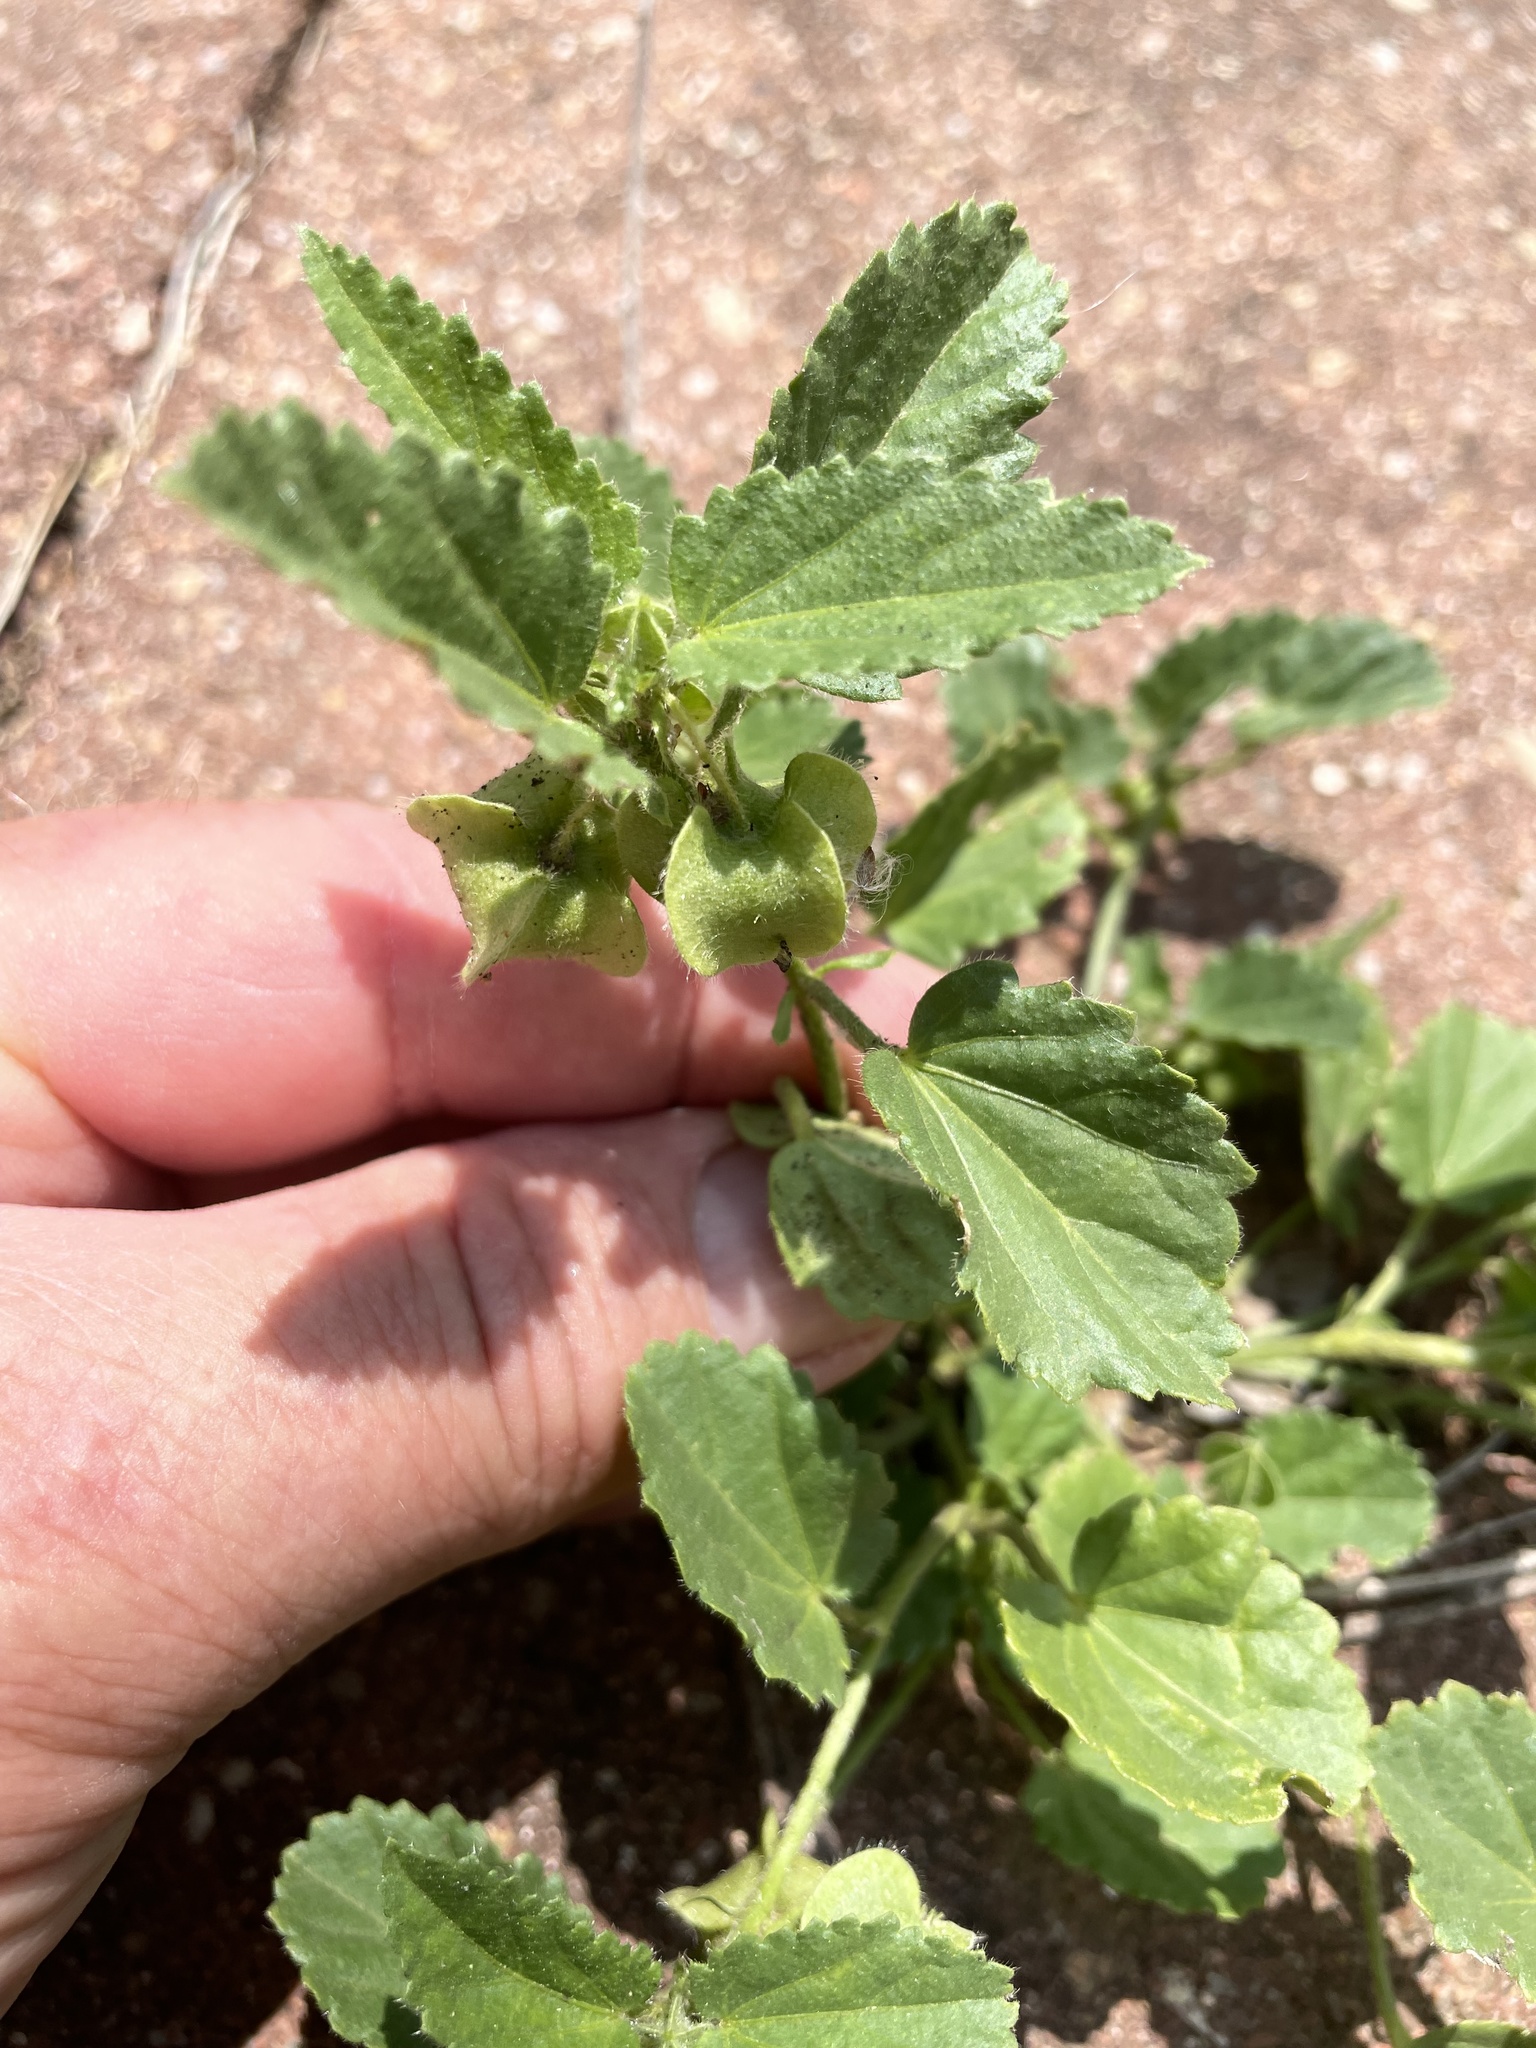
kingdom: Plantae
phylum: Tracheophyta
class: Magnoliopsida
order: Malvales
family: Malvaceae
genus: Rhynchosida
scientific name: Rhynchosida physocalyx
